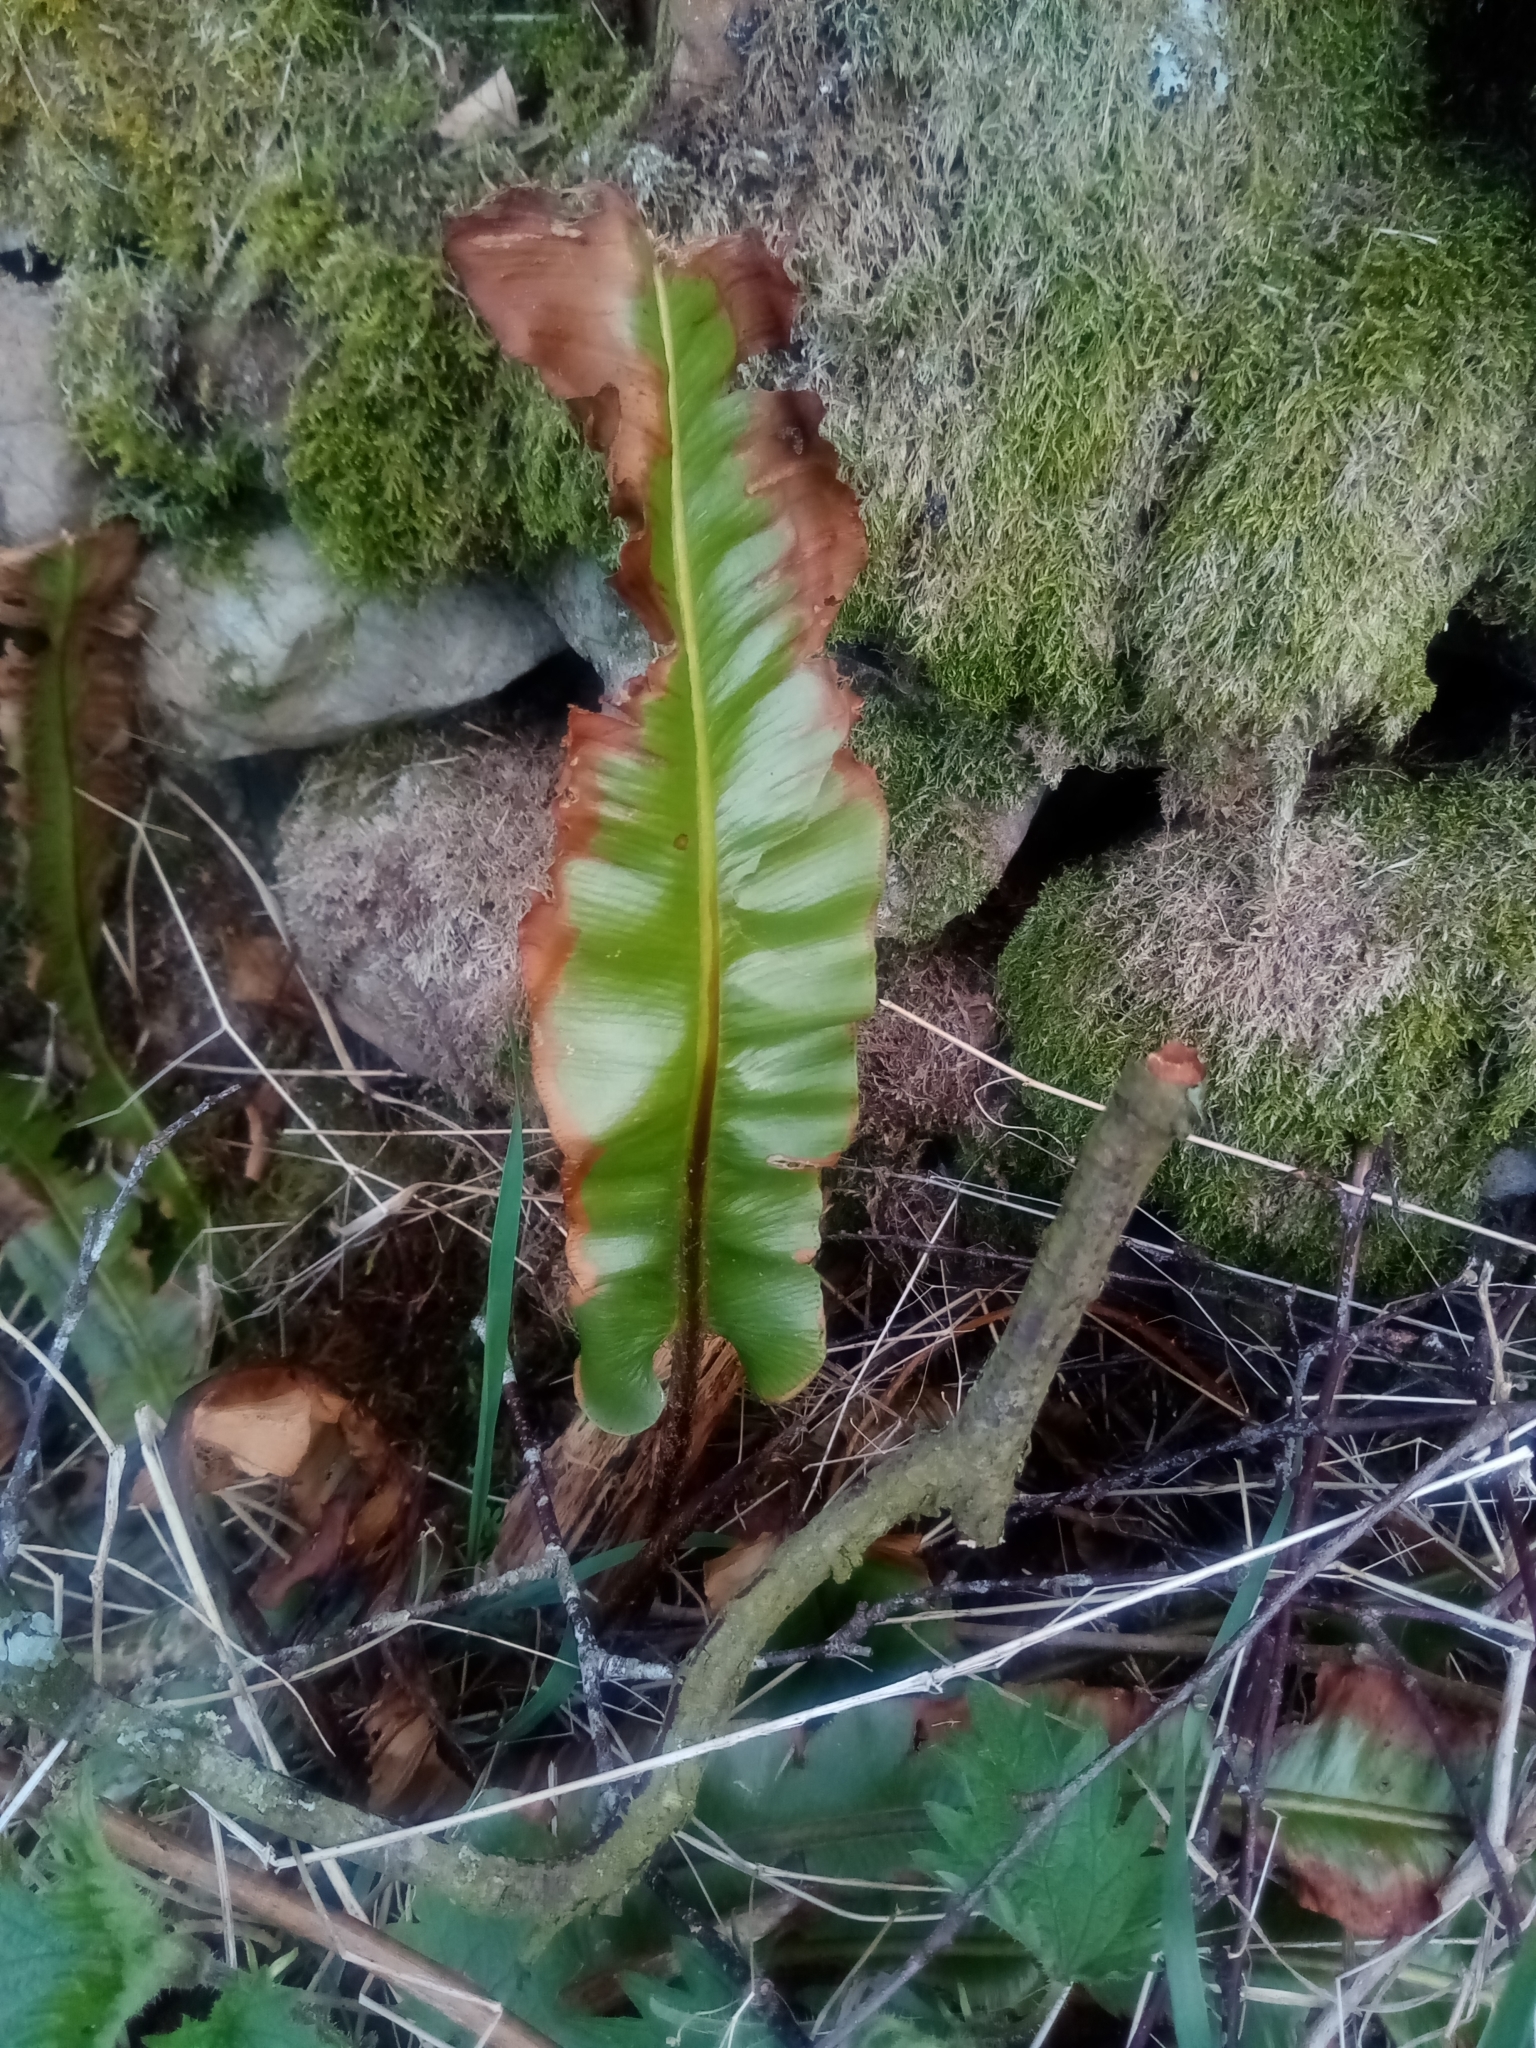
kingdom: Plantae
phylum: Tracheophyta
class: Polypodiopsida
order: Polypodiales
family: Aspleniaceae
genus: Asplenium
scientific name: Asplenium scolopendrium
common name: Hart's-tongue fern
